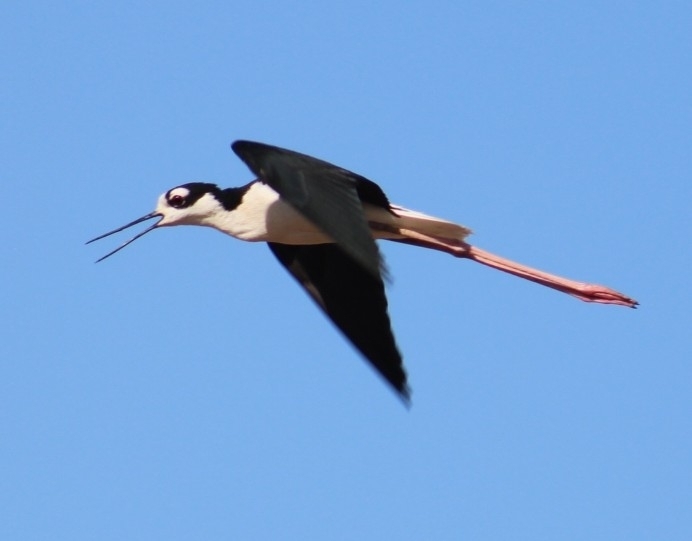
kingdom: Animalia
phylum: Chordata
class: Aves
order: Charadriiformes
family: Recurvirostridae
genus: Himantopus
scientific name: Himantopus mexicanus
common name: Black-necked stilt
